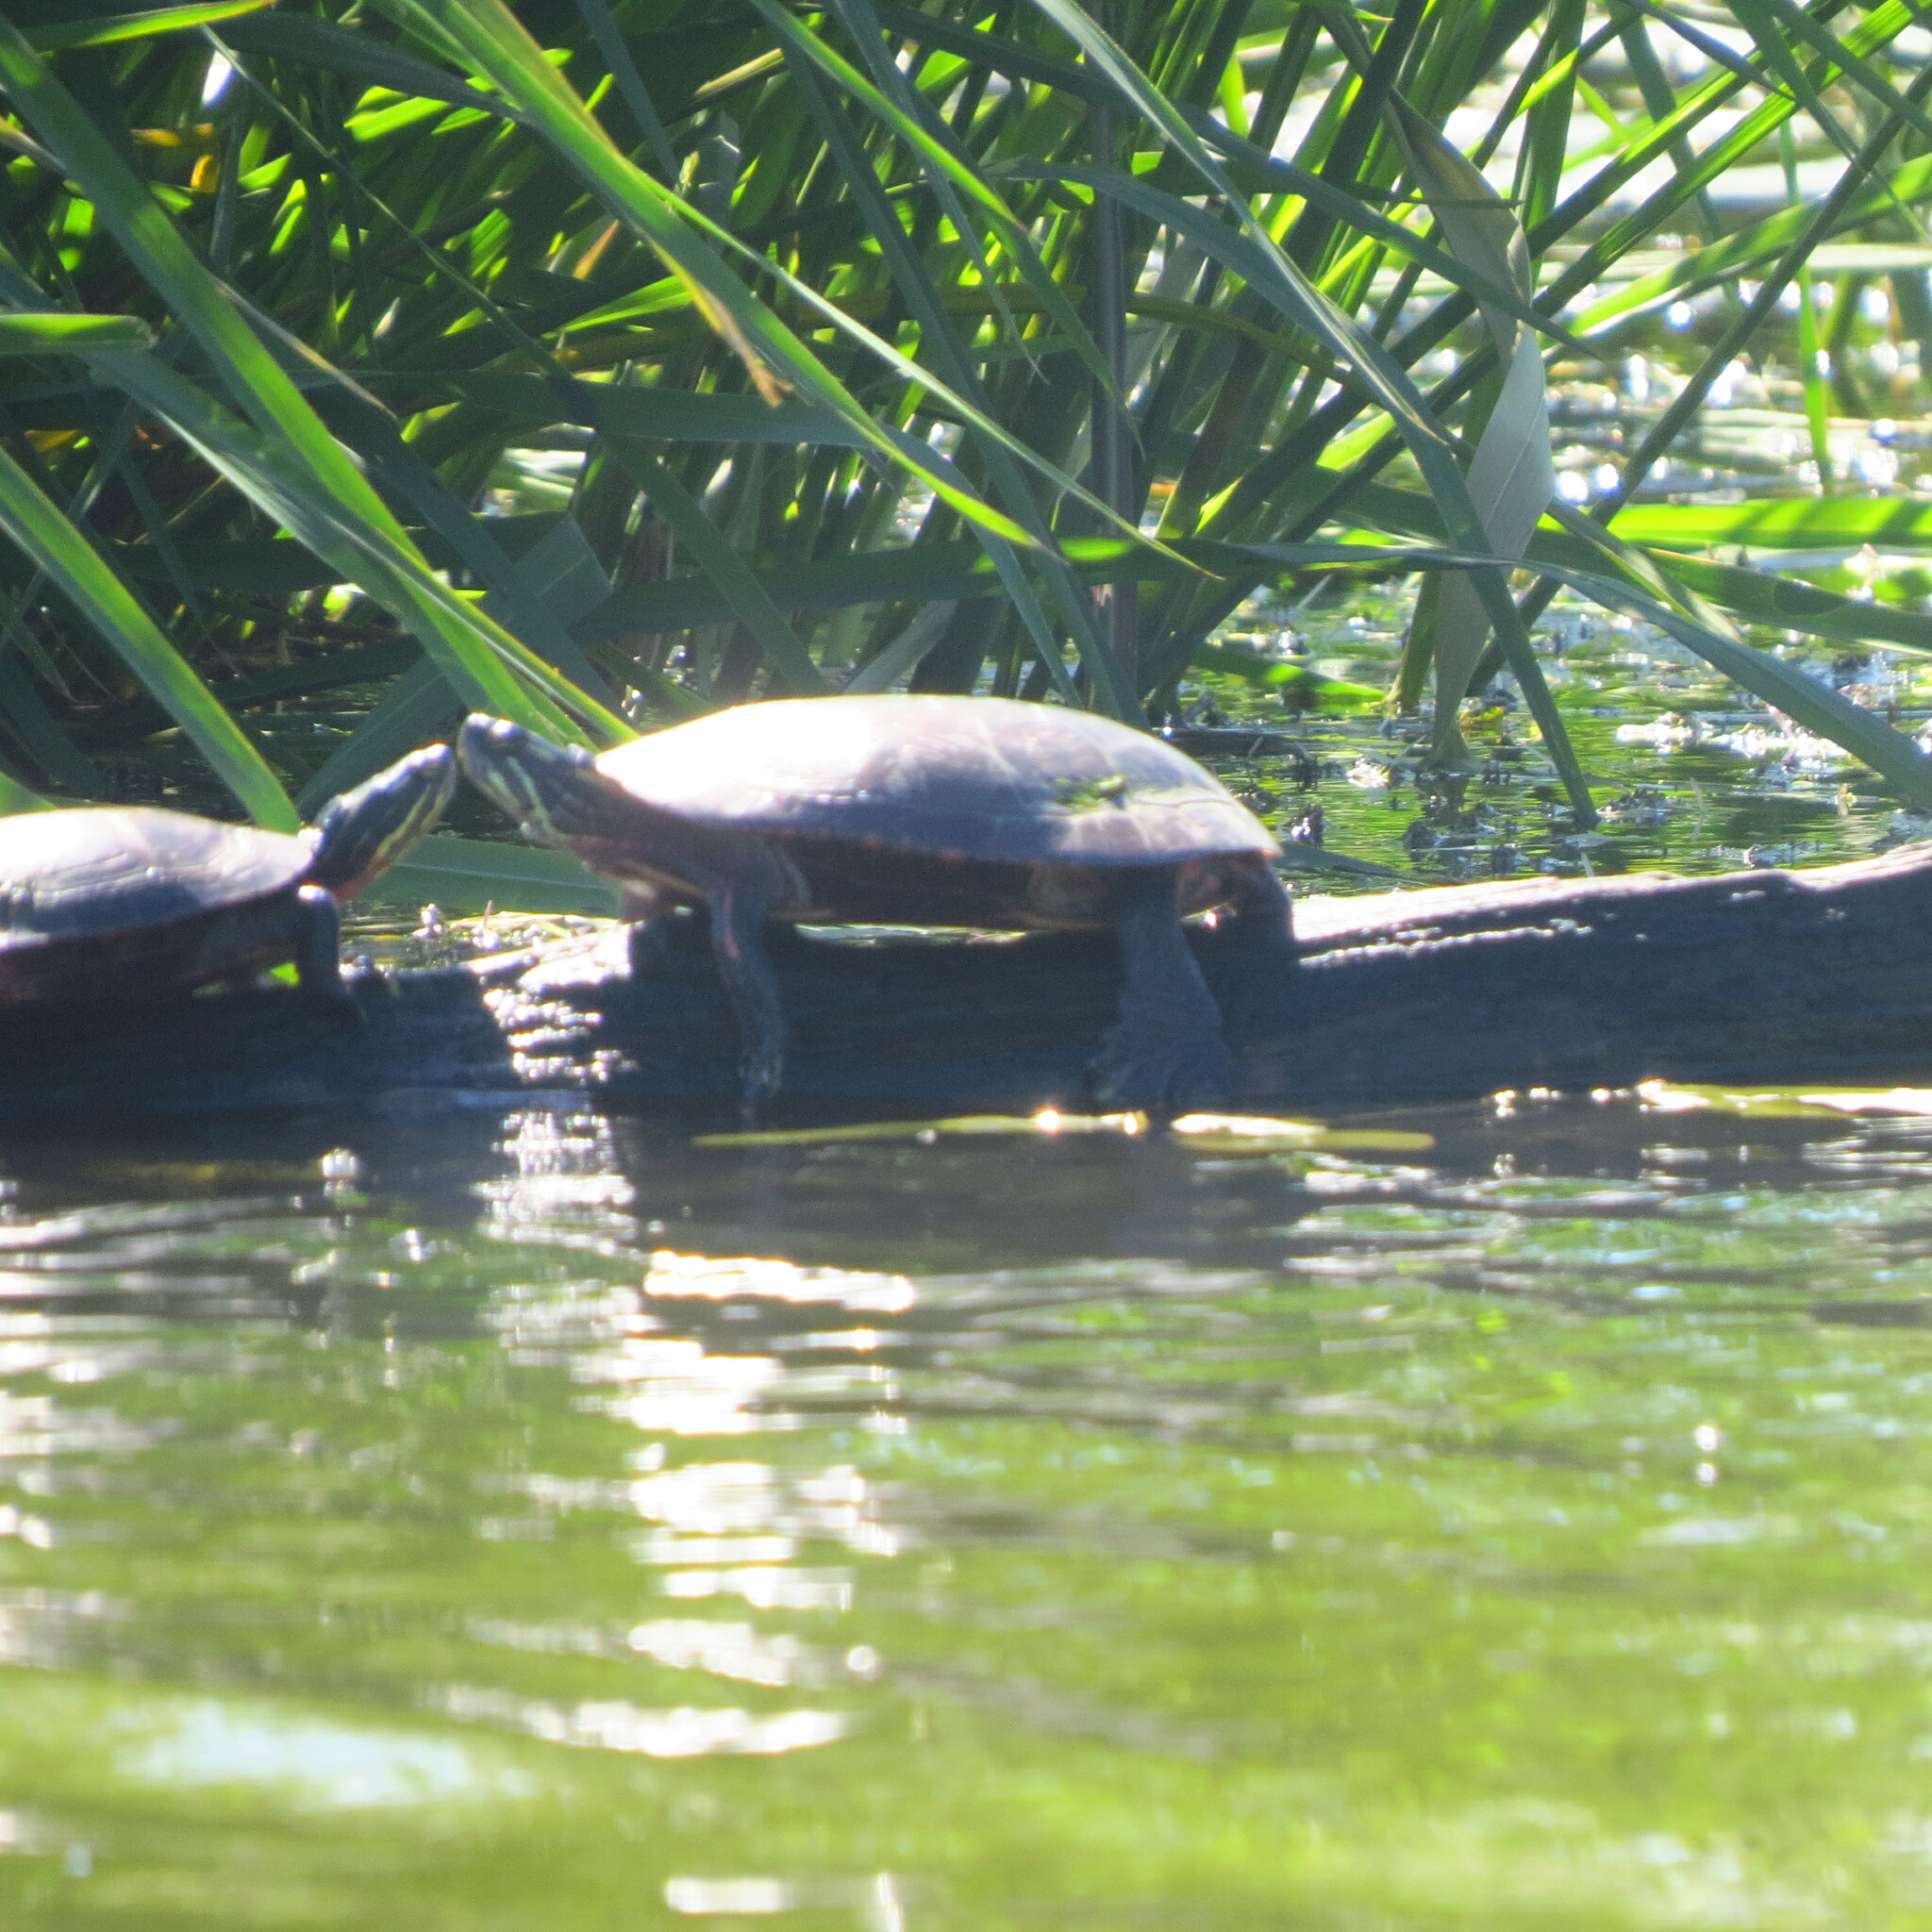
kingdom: Animalia
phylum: Chordata
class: Testudines
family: Emydidae
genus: Chrysemys
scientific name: Chrysemys picta
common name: Painted turtle
